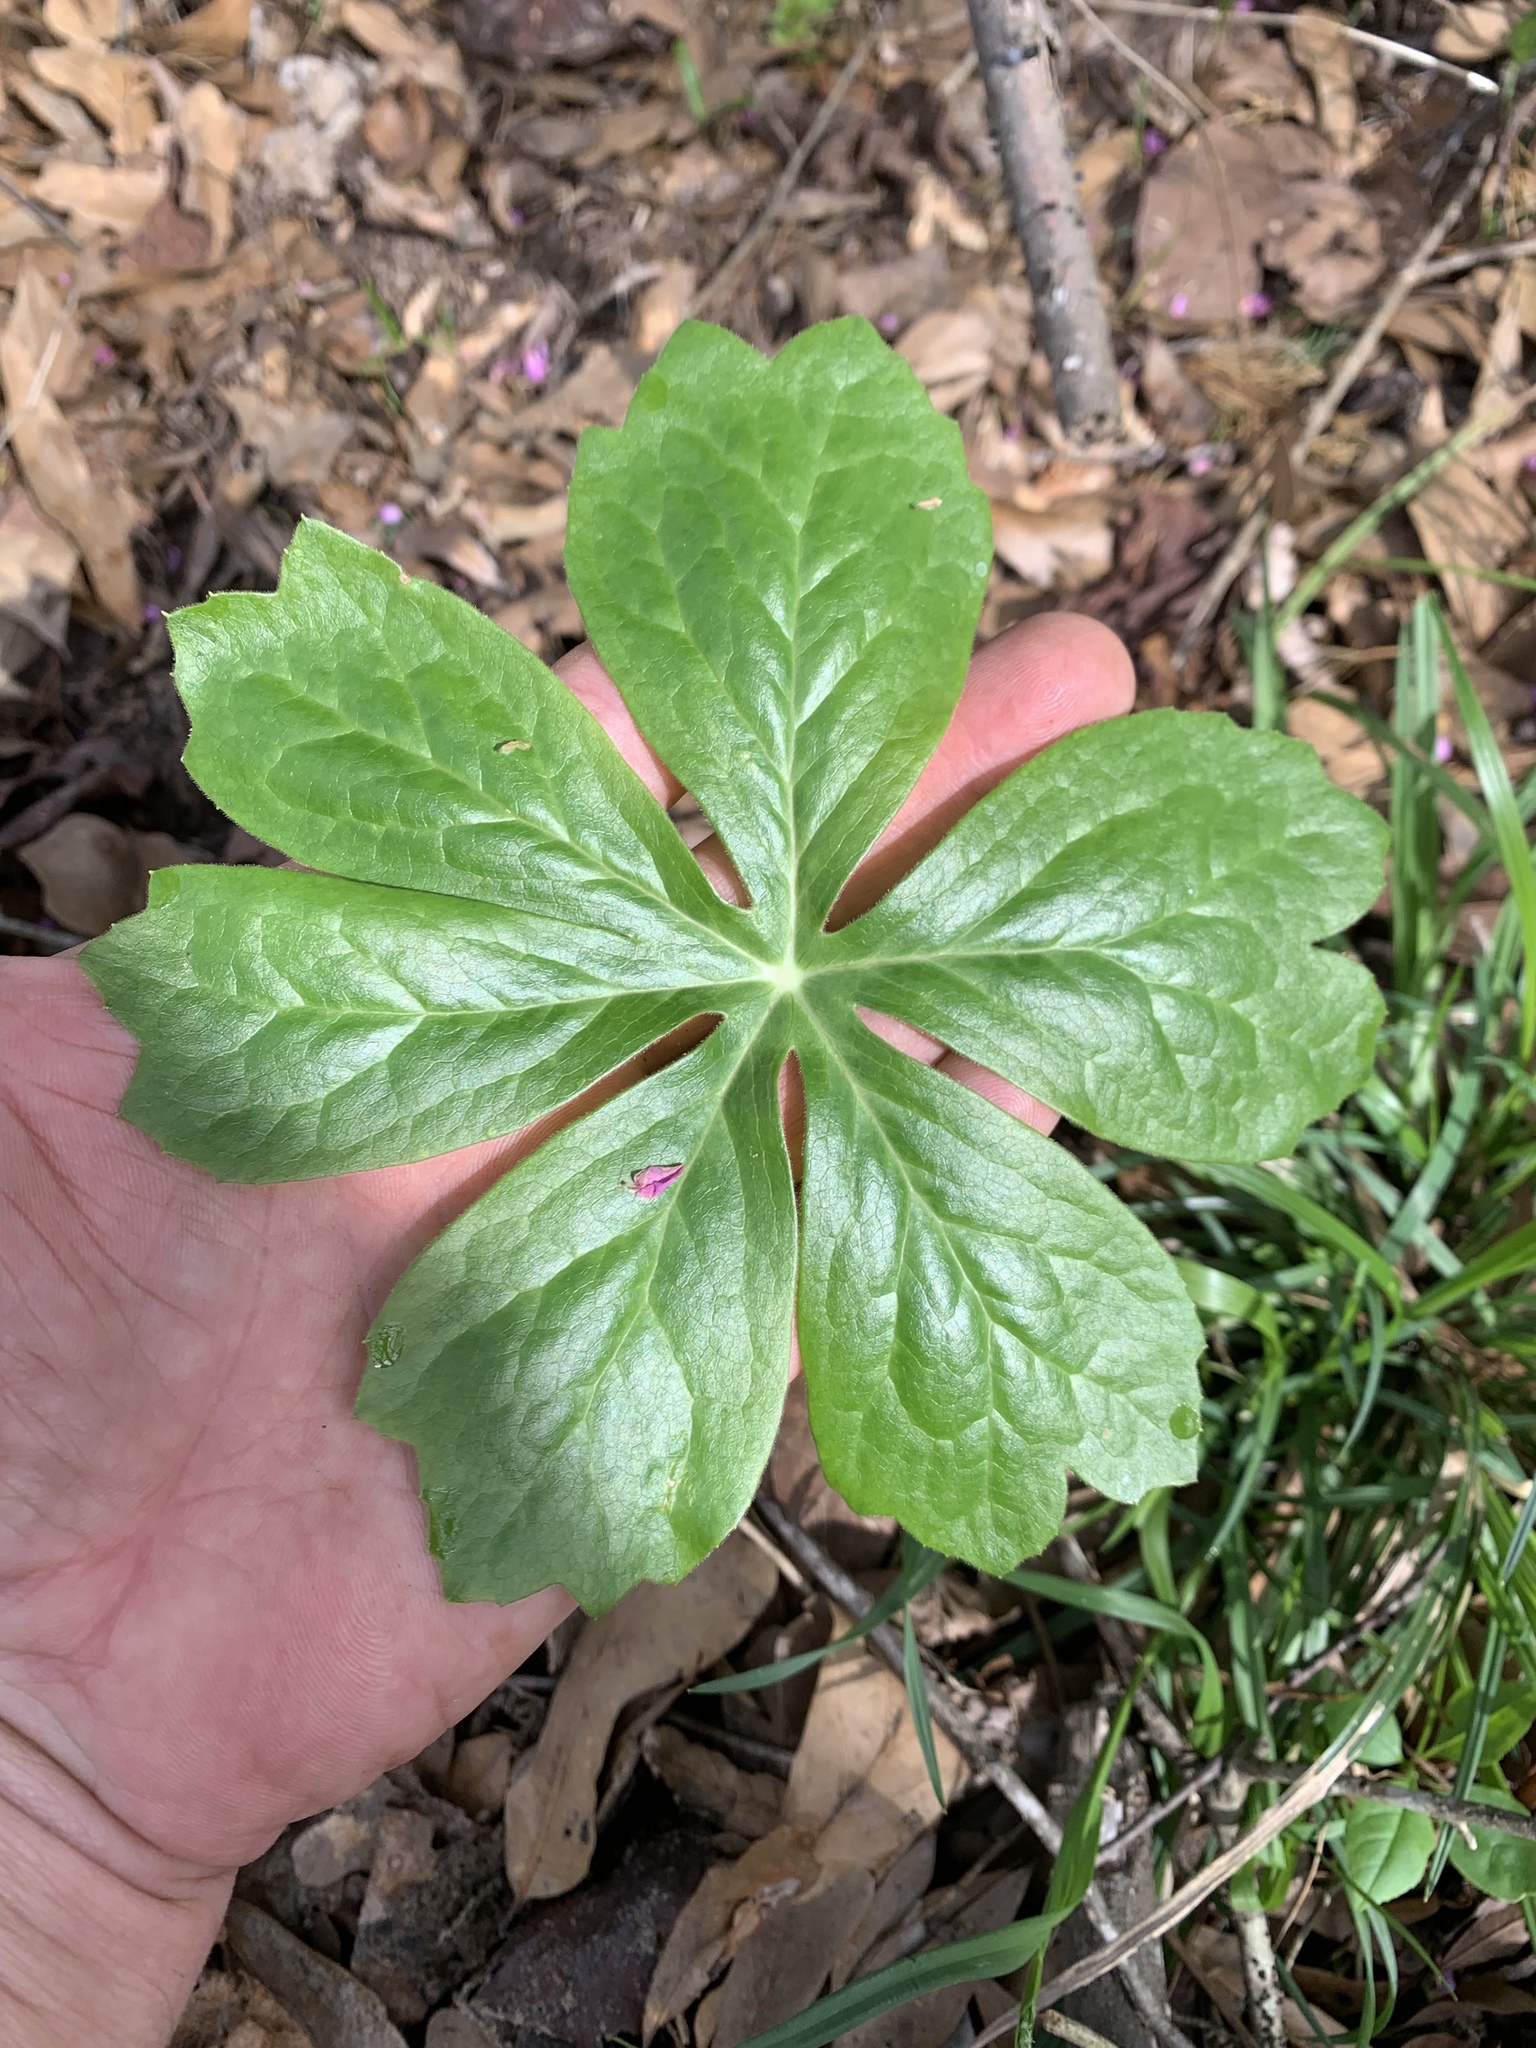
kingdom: Plantae
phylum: Tracheophyta
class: Magnoliopsida
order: Ranunculales
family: Berberidaceae
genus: Podophyllum
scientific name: Podophyllum peltatum
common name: Wild mandrake
